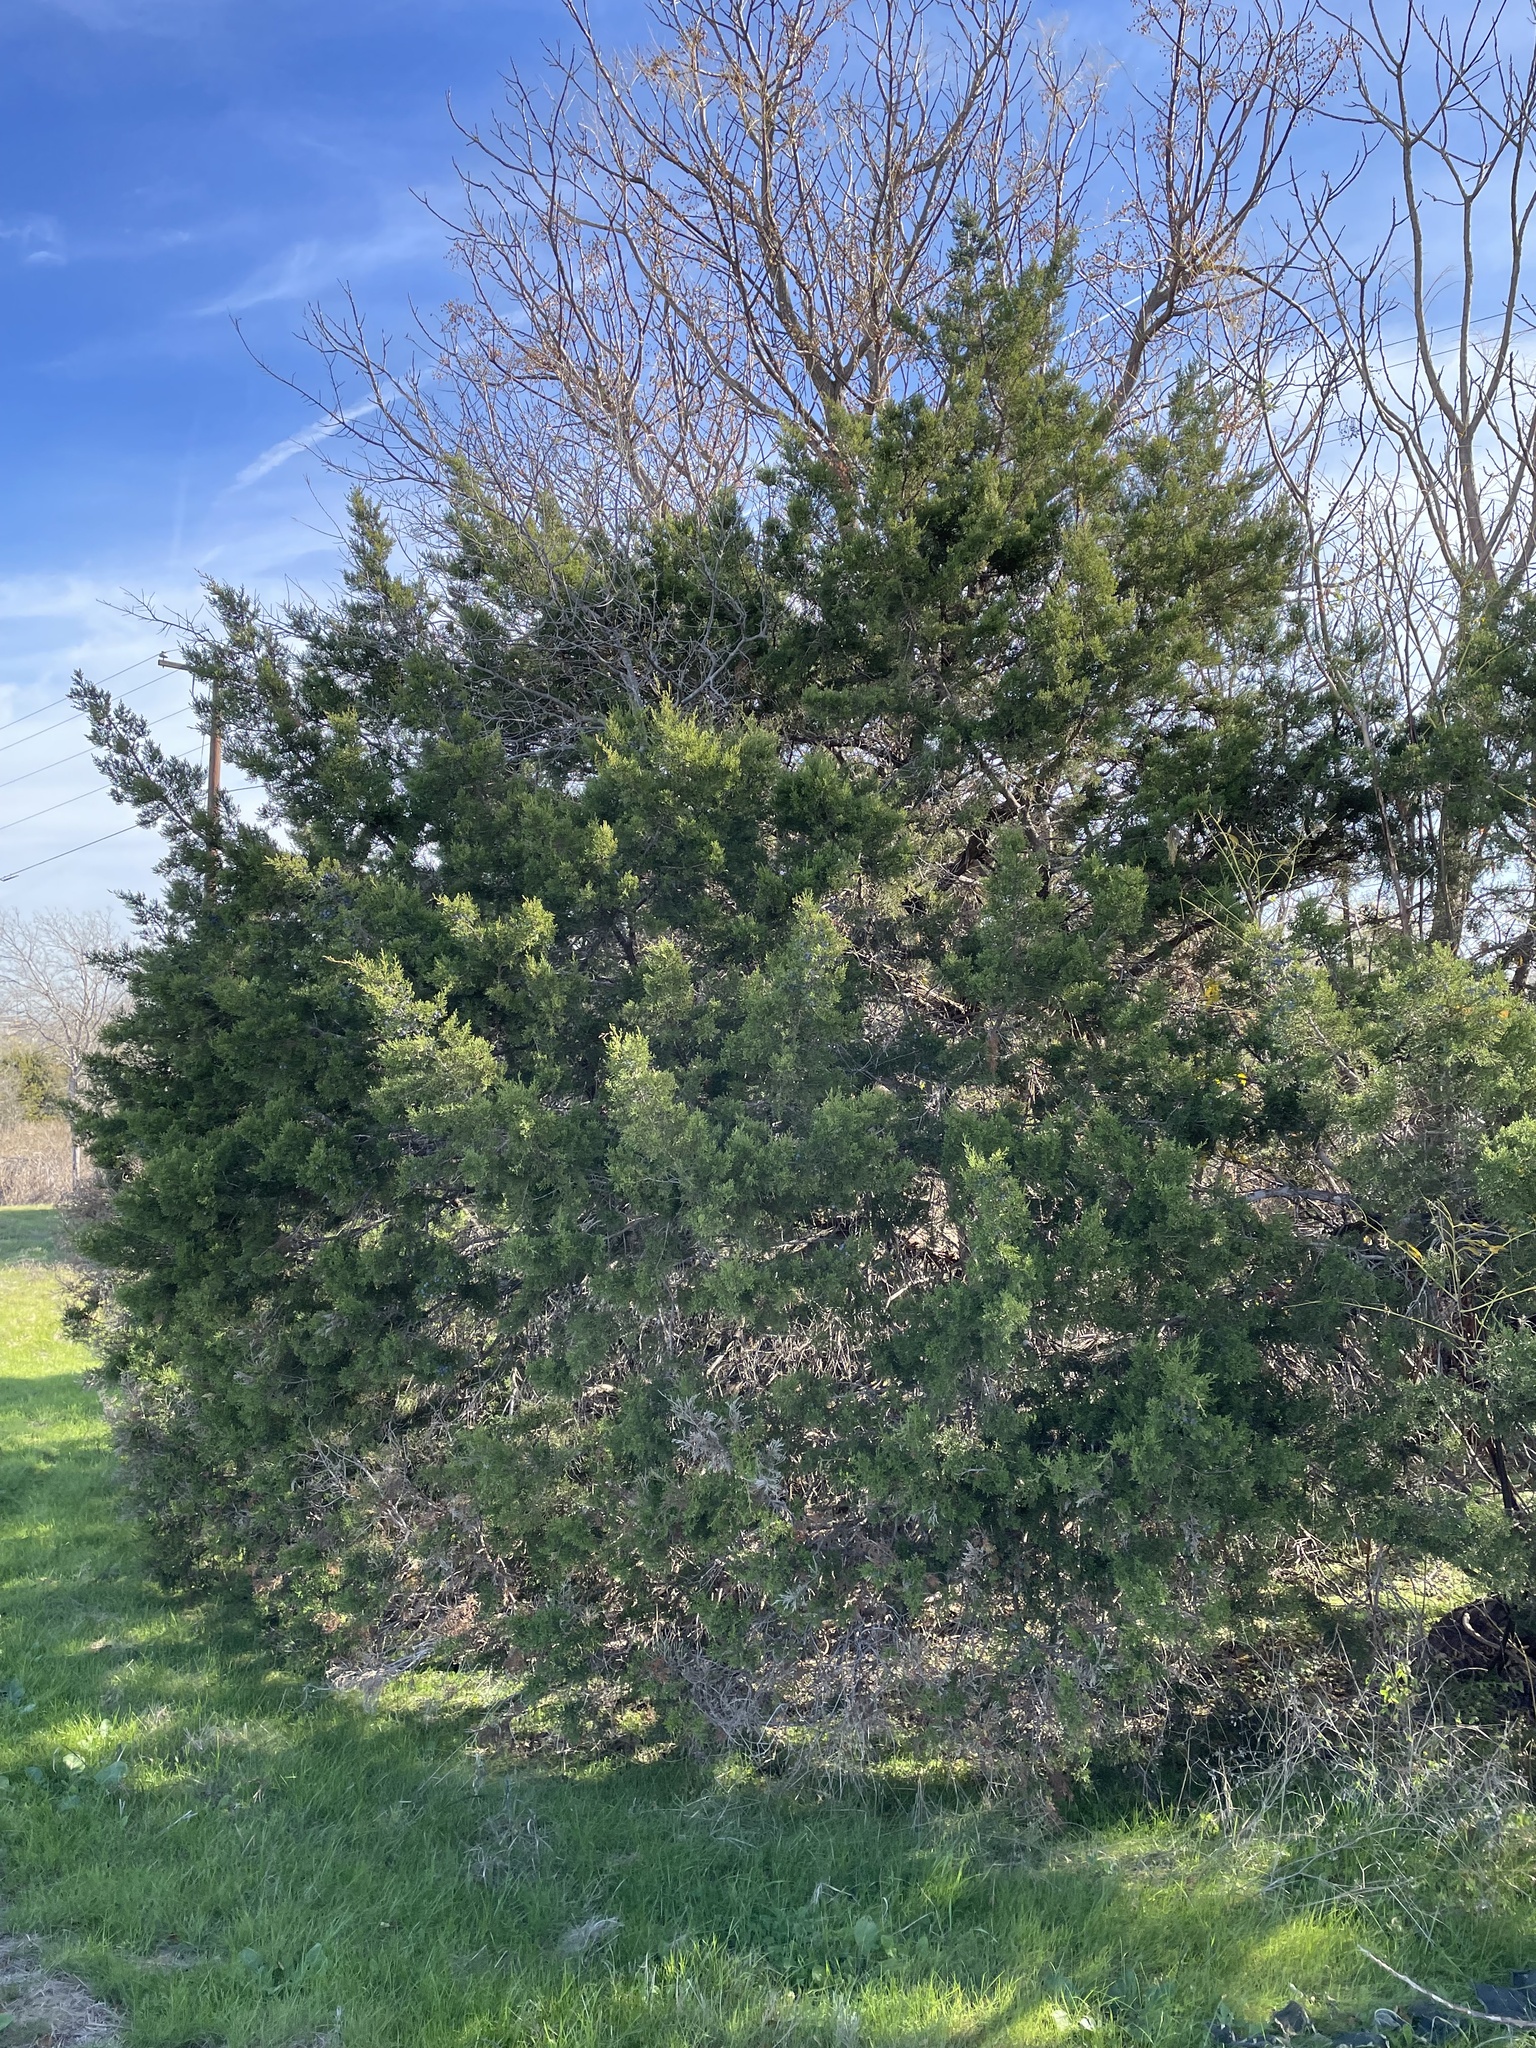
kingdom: Plantae
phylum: Tracheophyta
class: Pinopsida
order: Pinales
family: Cupressaceae
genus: Juniperus
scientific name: Juniperus ashei
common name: Mexican juniper
